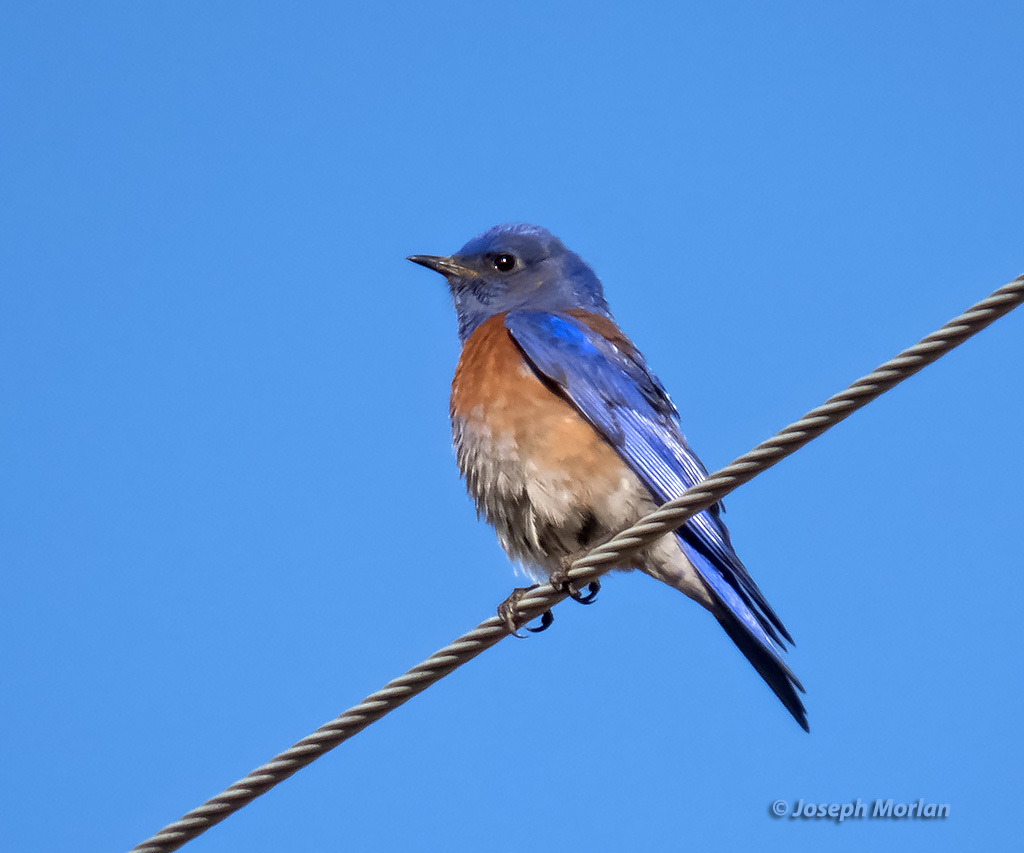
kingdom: Animalia
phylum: Chordata
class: Aves
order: Passeriformes
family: Turdidae
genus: Sialia
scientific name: Sialia mexicana
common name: Western bluebird
